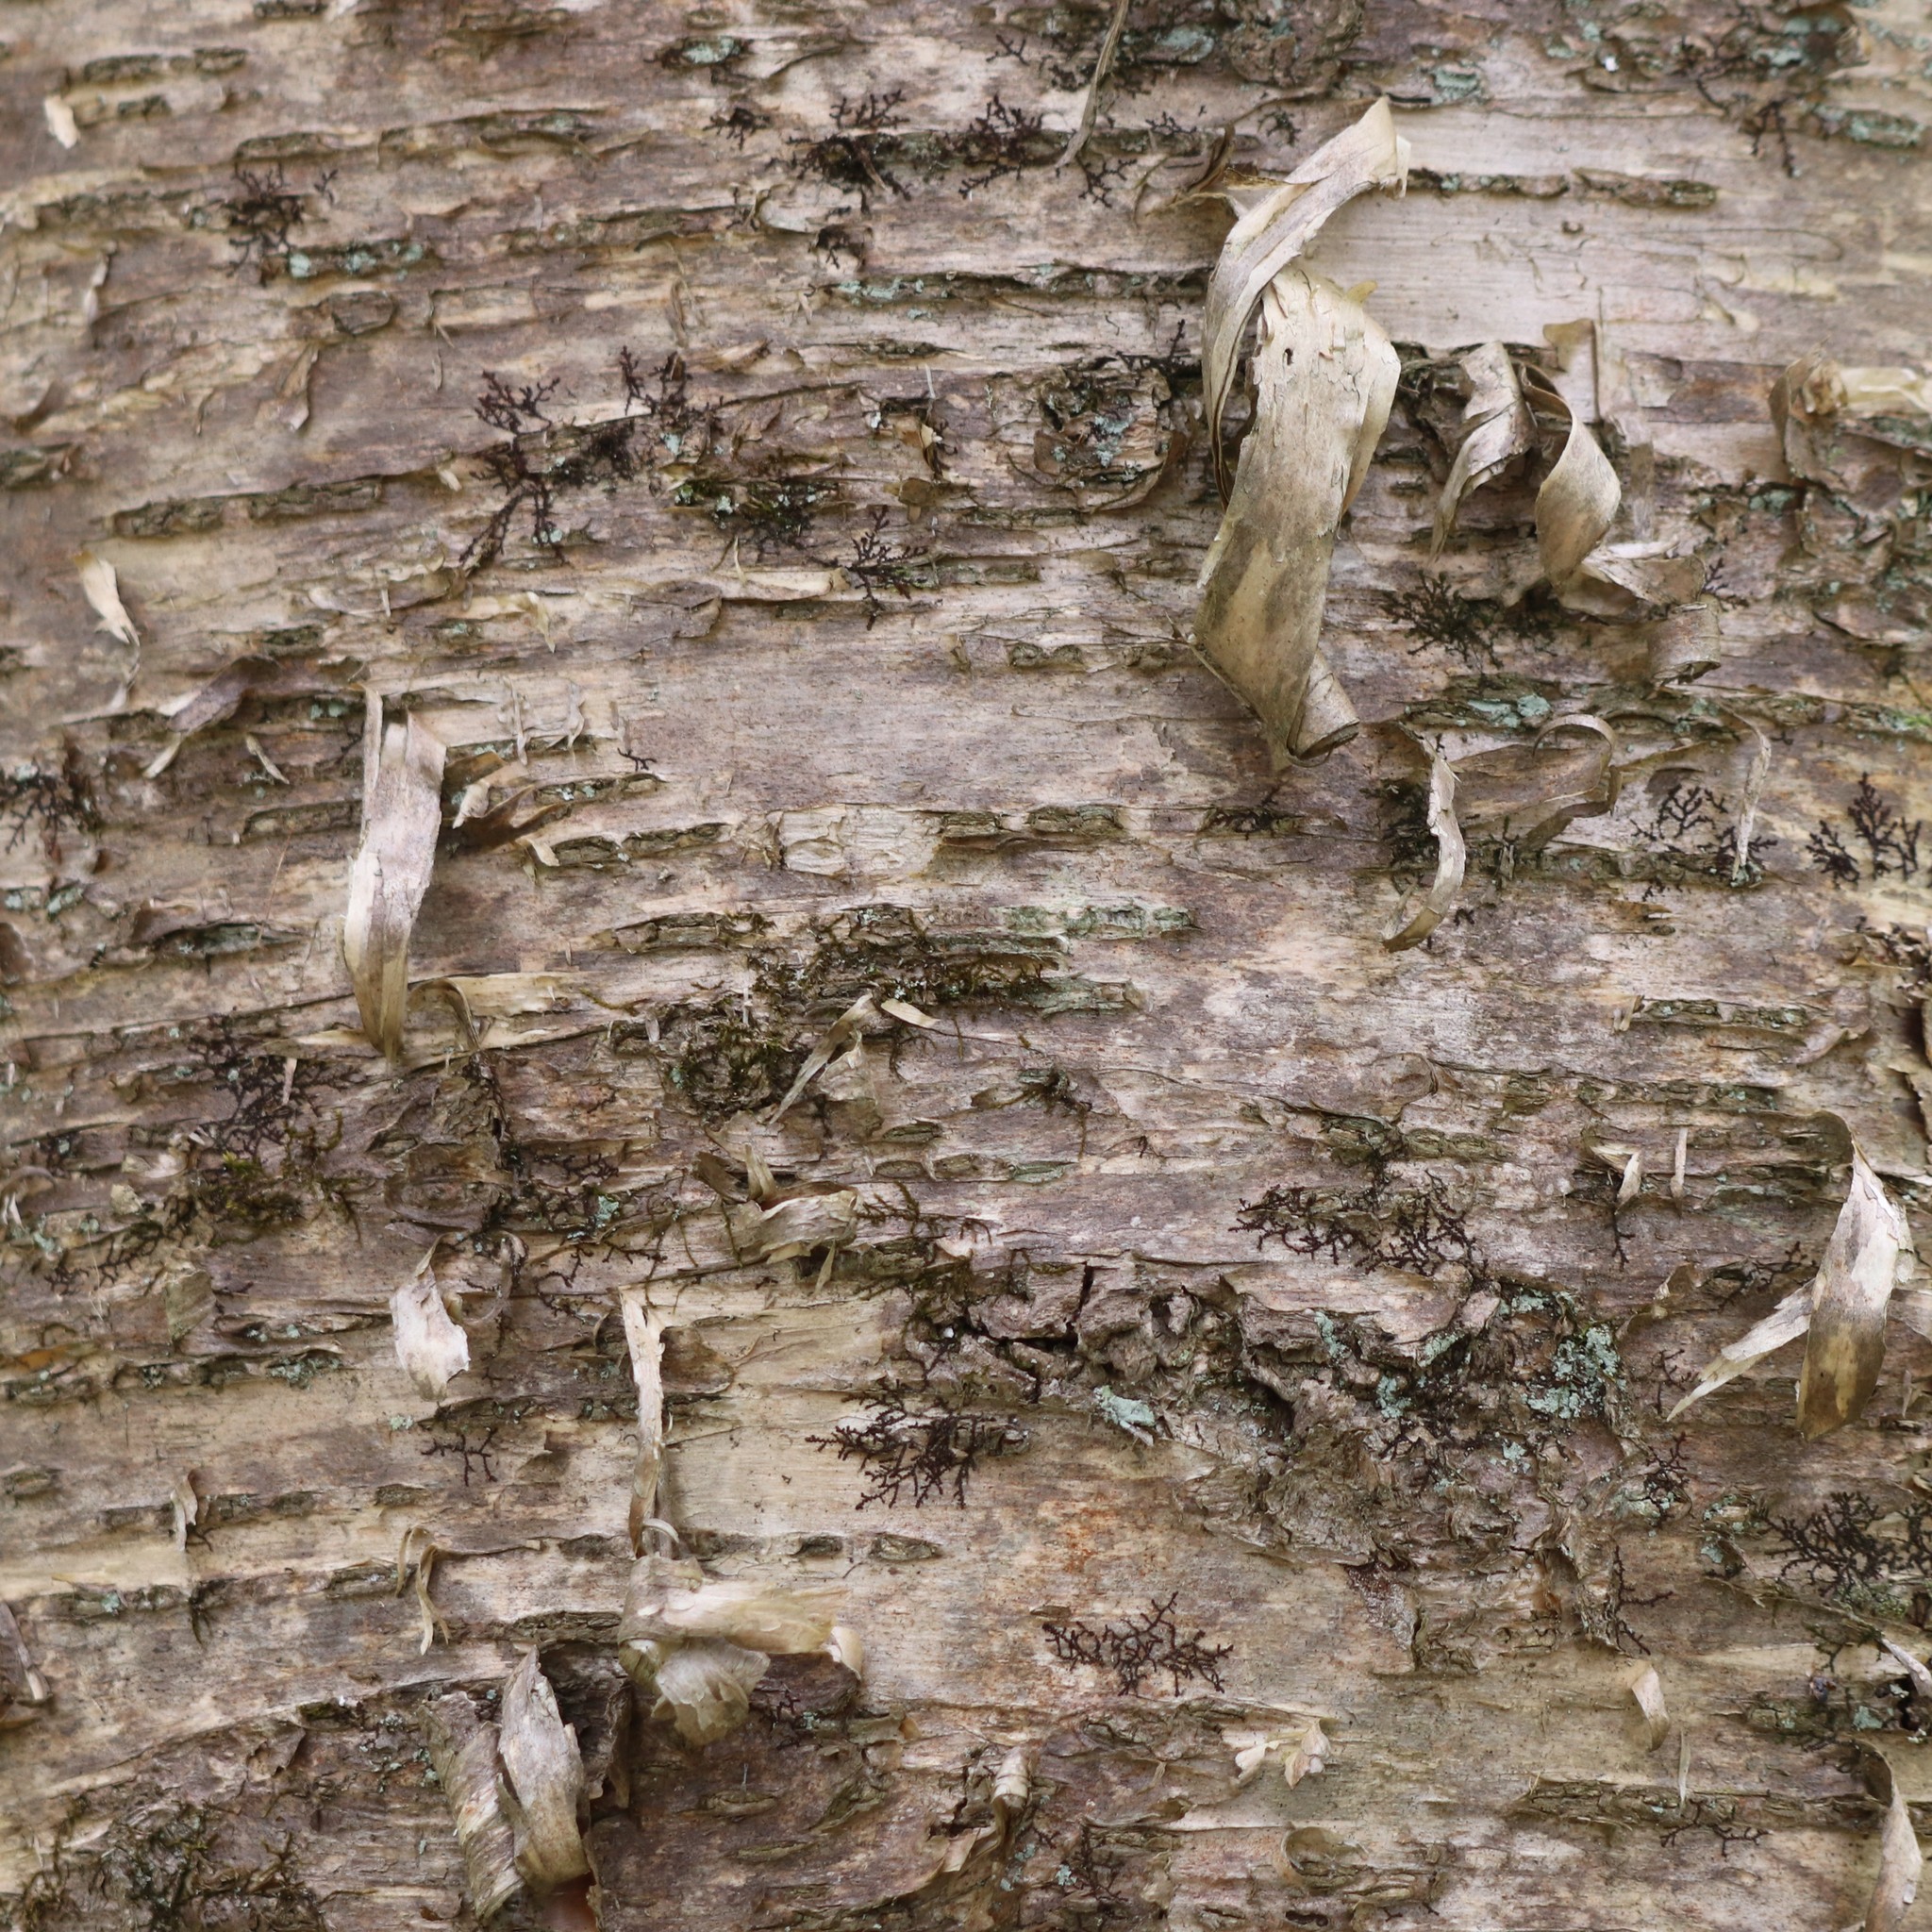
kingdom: Plantae
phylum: Tracheophyta
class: Magnoliopsida
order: Fagales
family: Betulaceae
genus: Betula
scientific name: Betula alleghaniensis
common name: Yellow birch
